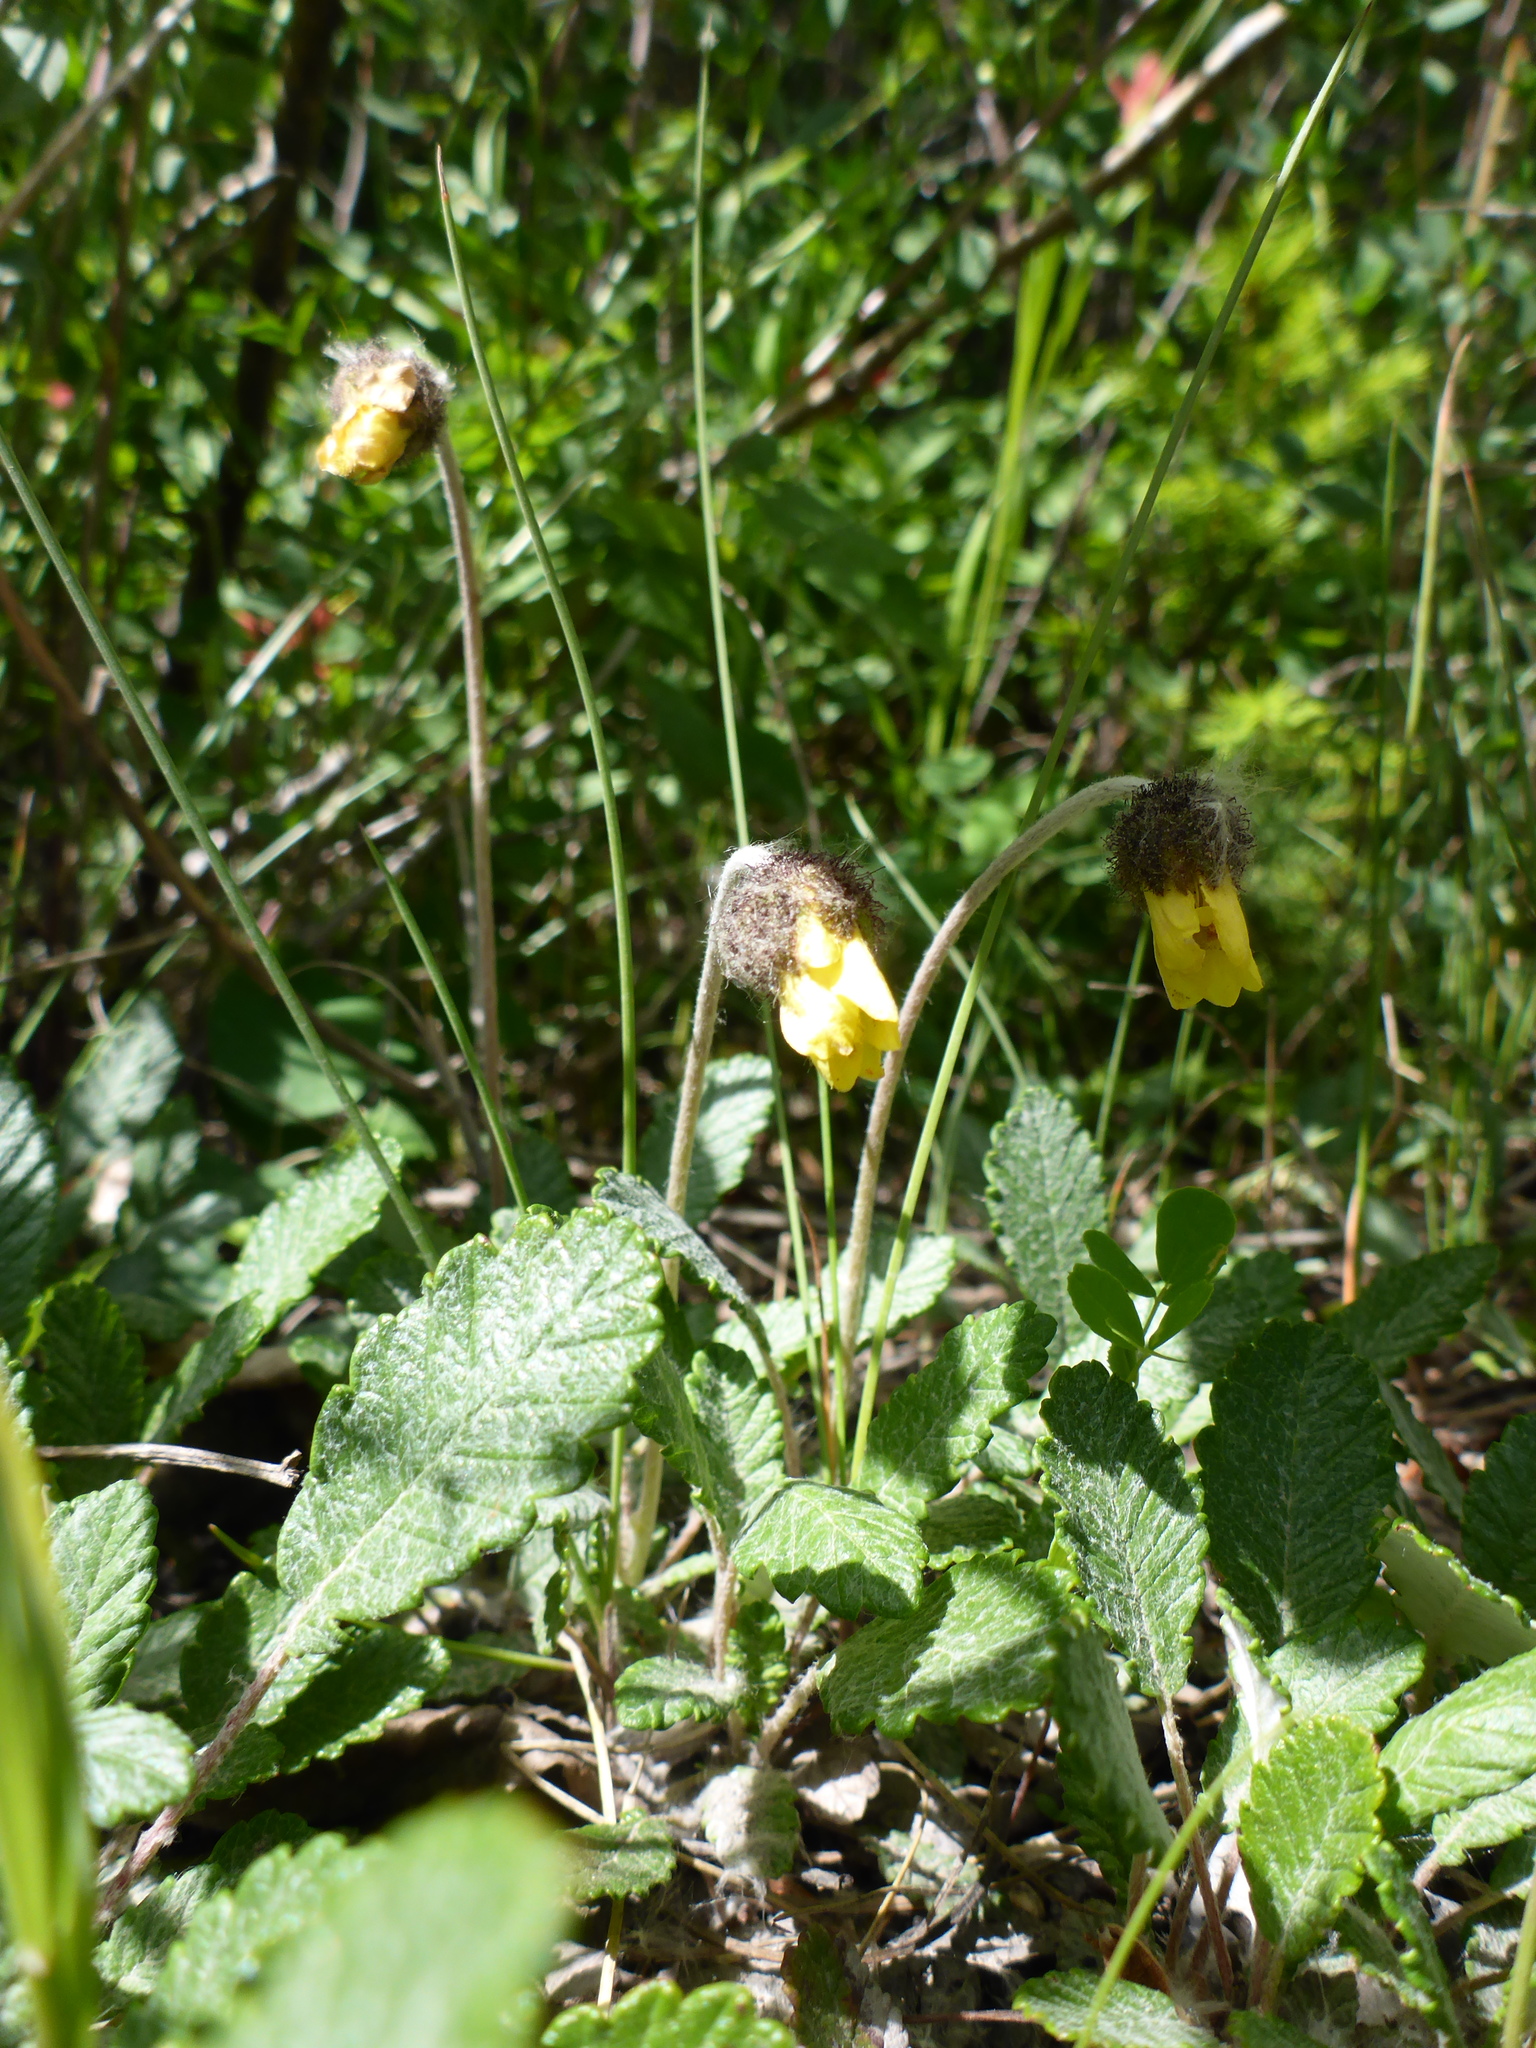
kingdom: Plantae
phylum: Tracheophyta
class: Magnoliopsida
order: Rosales
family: Rosaceae
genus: Dryas
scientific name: Dryas drummondii
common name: Drummond's dryad
